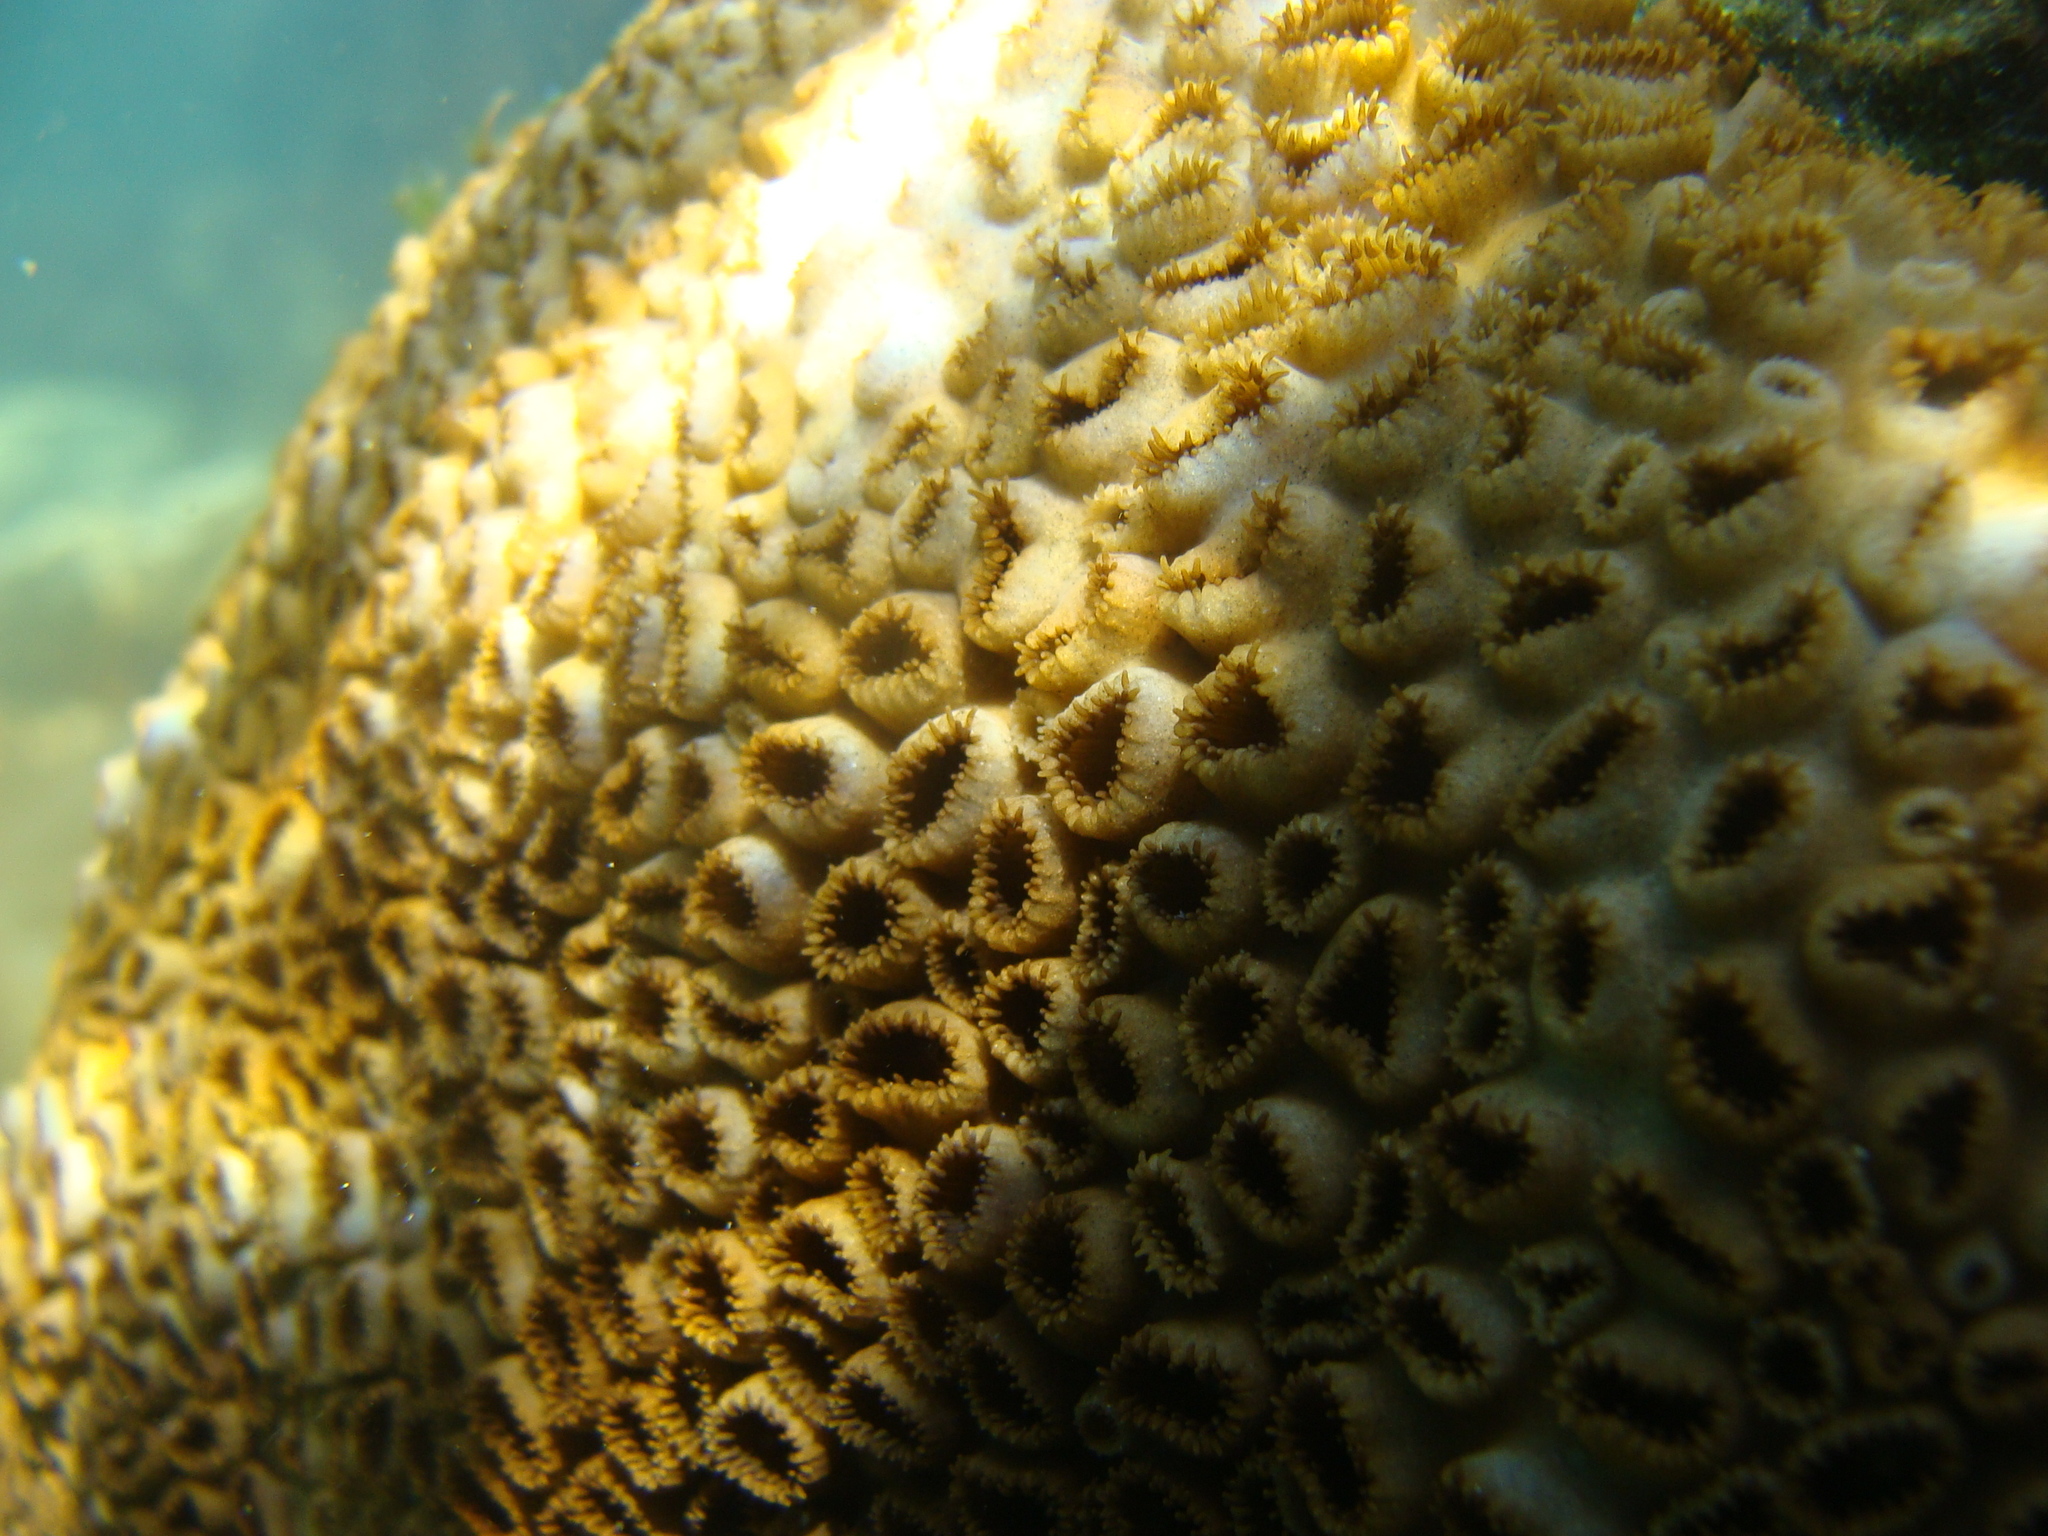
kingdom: Animalia
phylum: Cnidaria
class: Anthozoa
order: Zoantharia
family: Sphenopidae
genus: Palythoa
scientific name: Palythoa caribaeorum
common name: Encrusting colonial anemone
